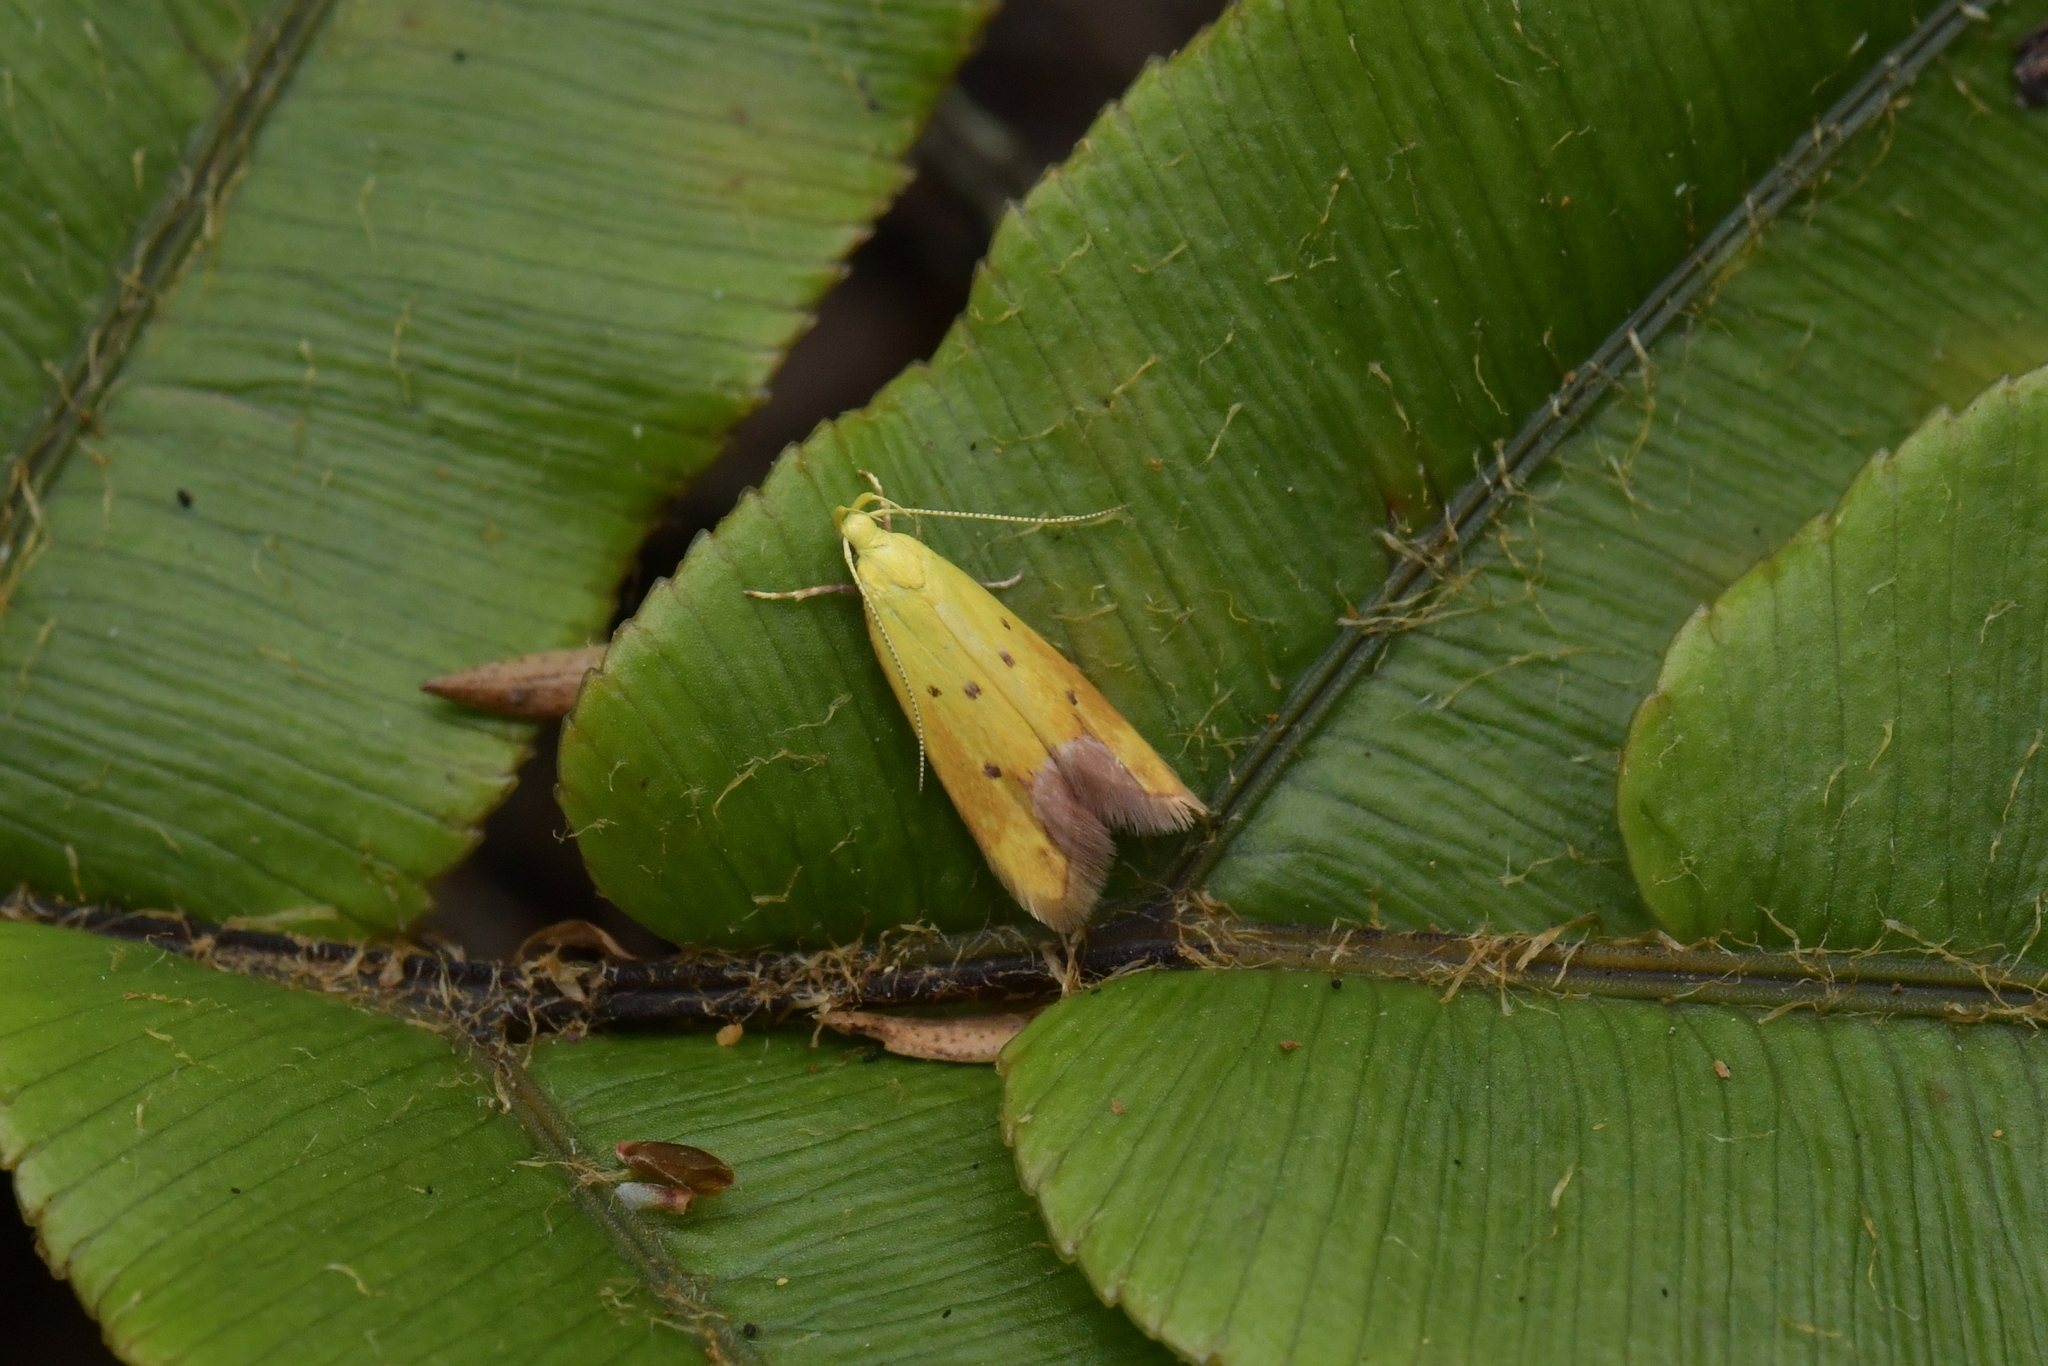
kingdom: Animalia
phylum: Arthropoda
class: Insecta
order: Lepidoptera
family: Oecophoridae
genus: Gymnobathra
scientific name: Gymnobathra
